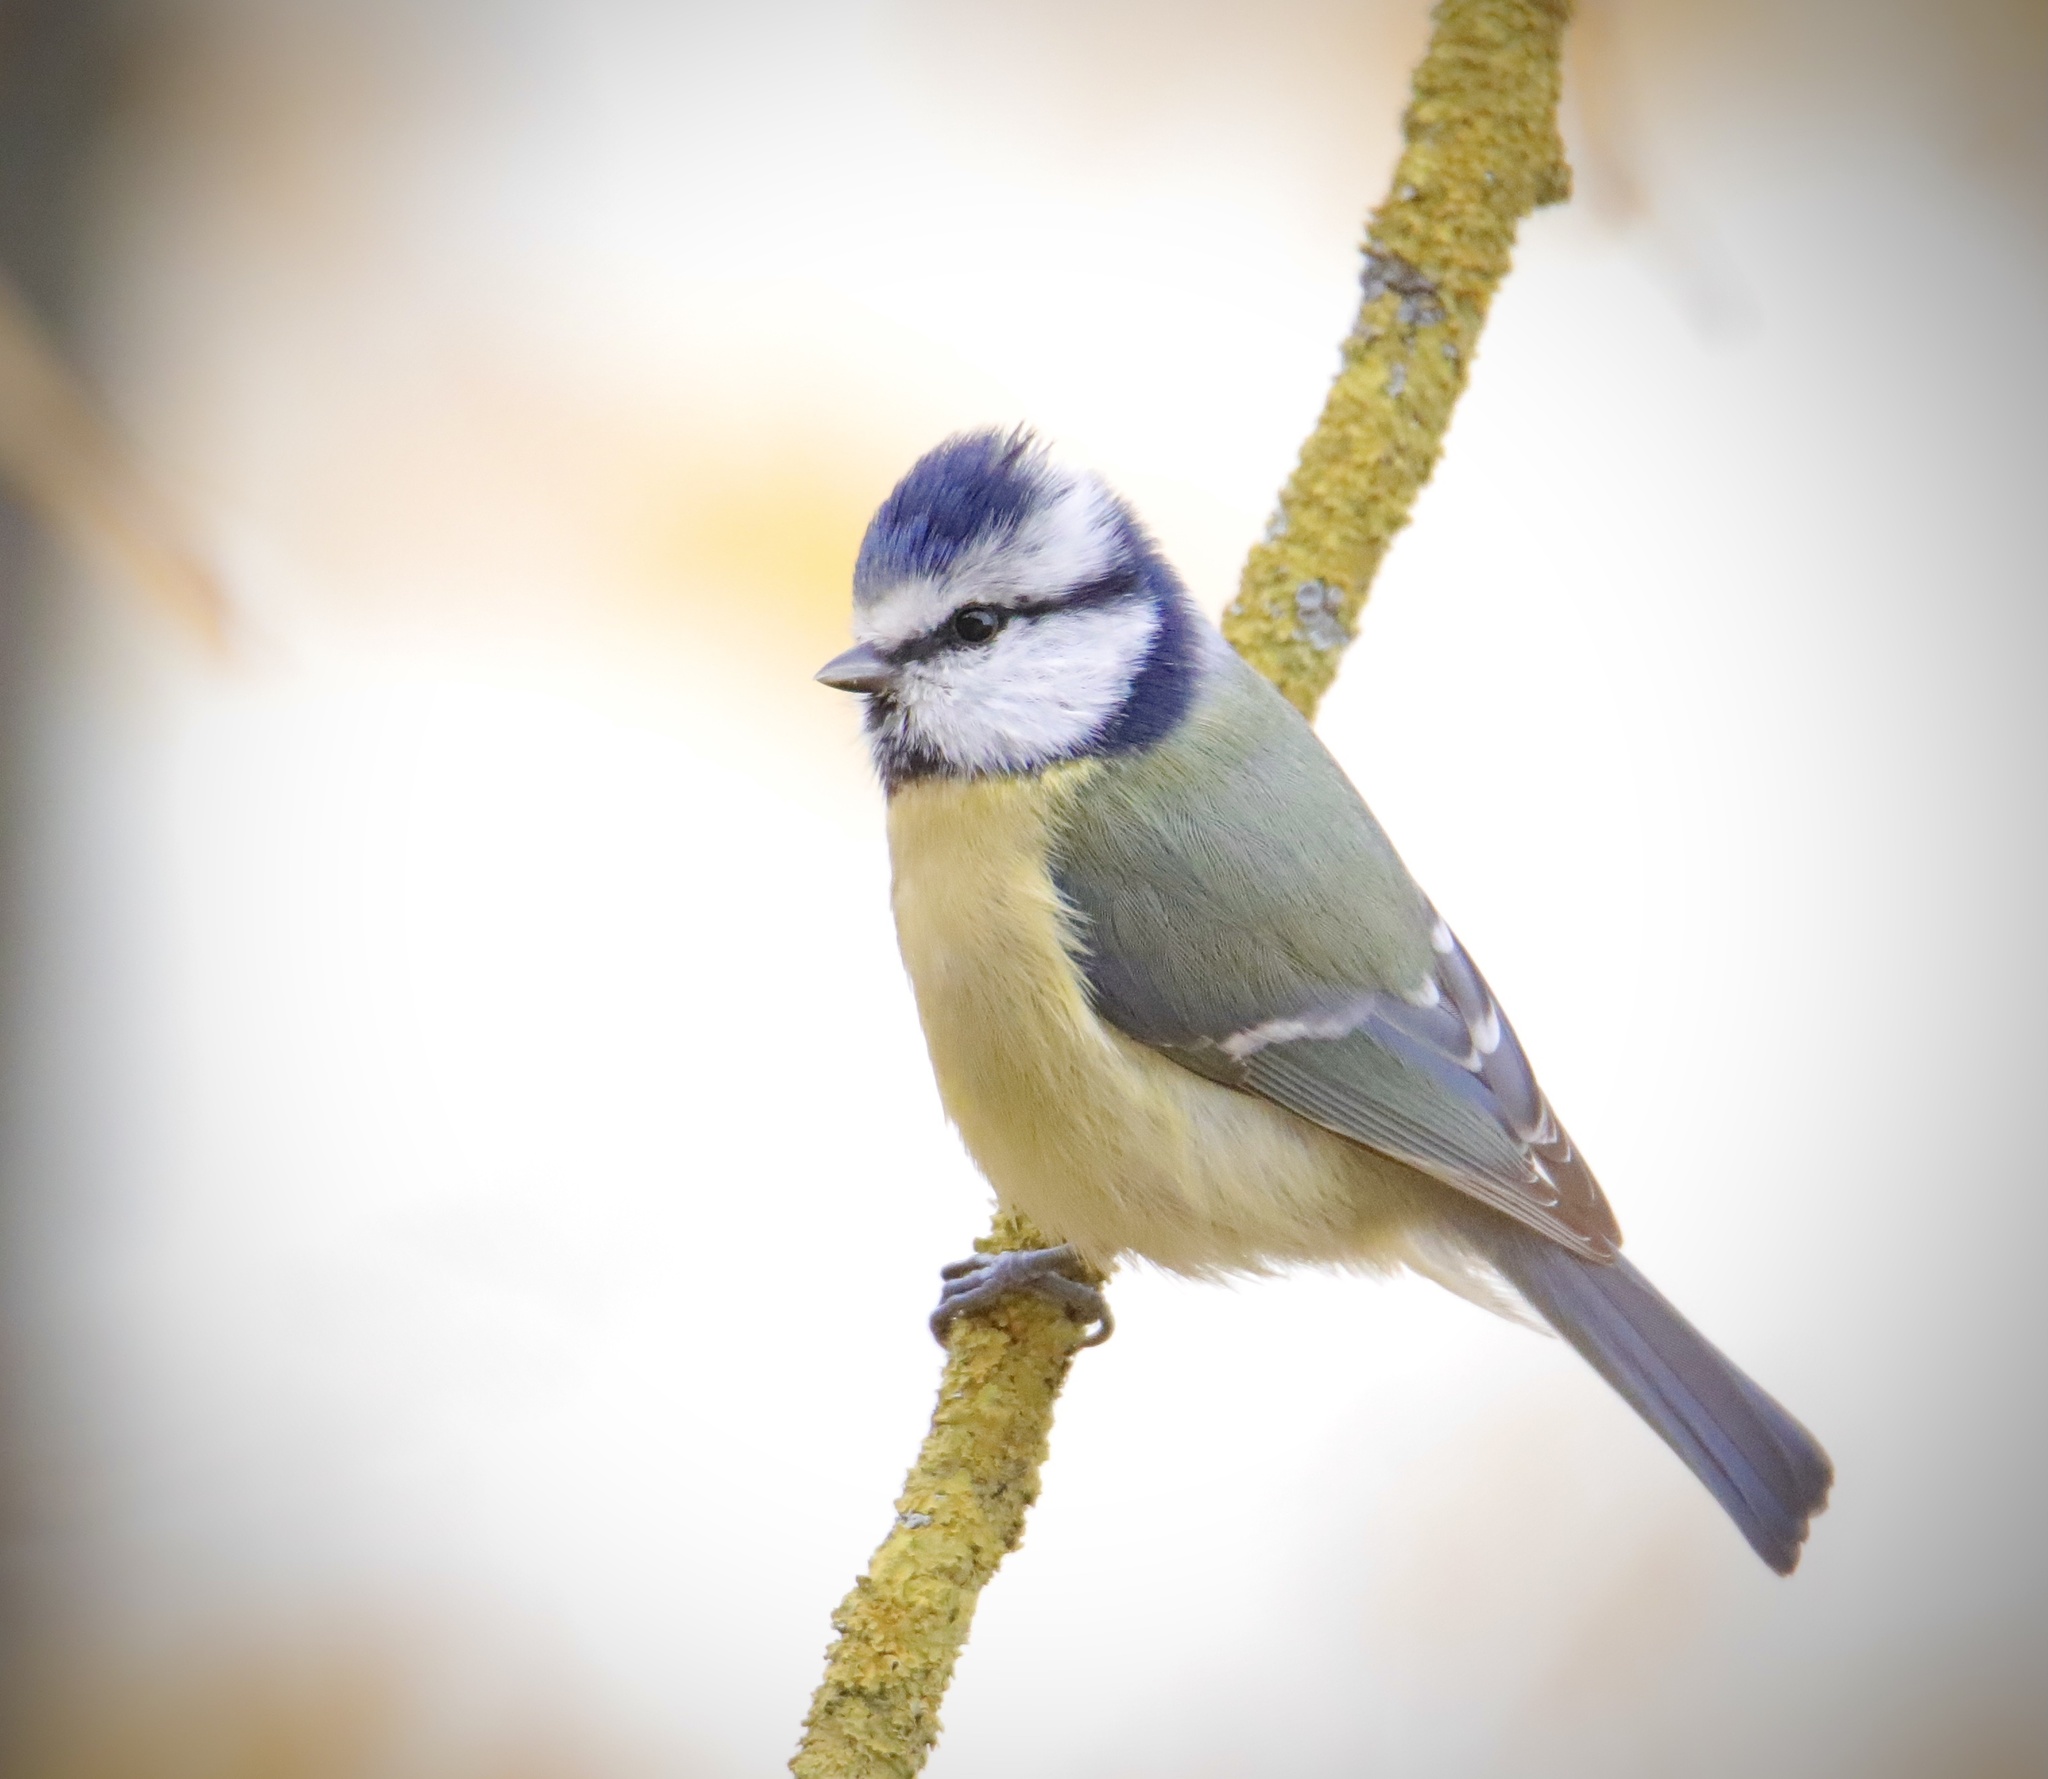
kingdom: Animalia
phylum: Chordata
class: Aves
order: Passeriformes
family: Paridae
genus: Cyanistes
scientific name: Cyanistes caeruleus
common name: Eurasian blue tit
